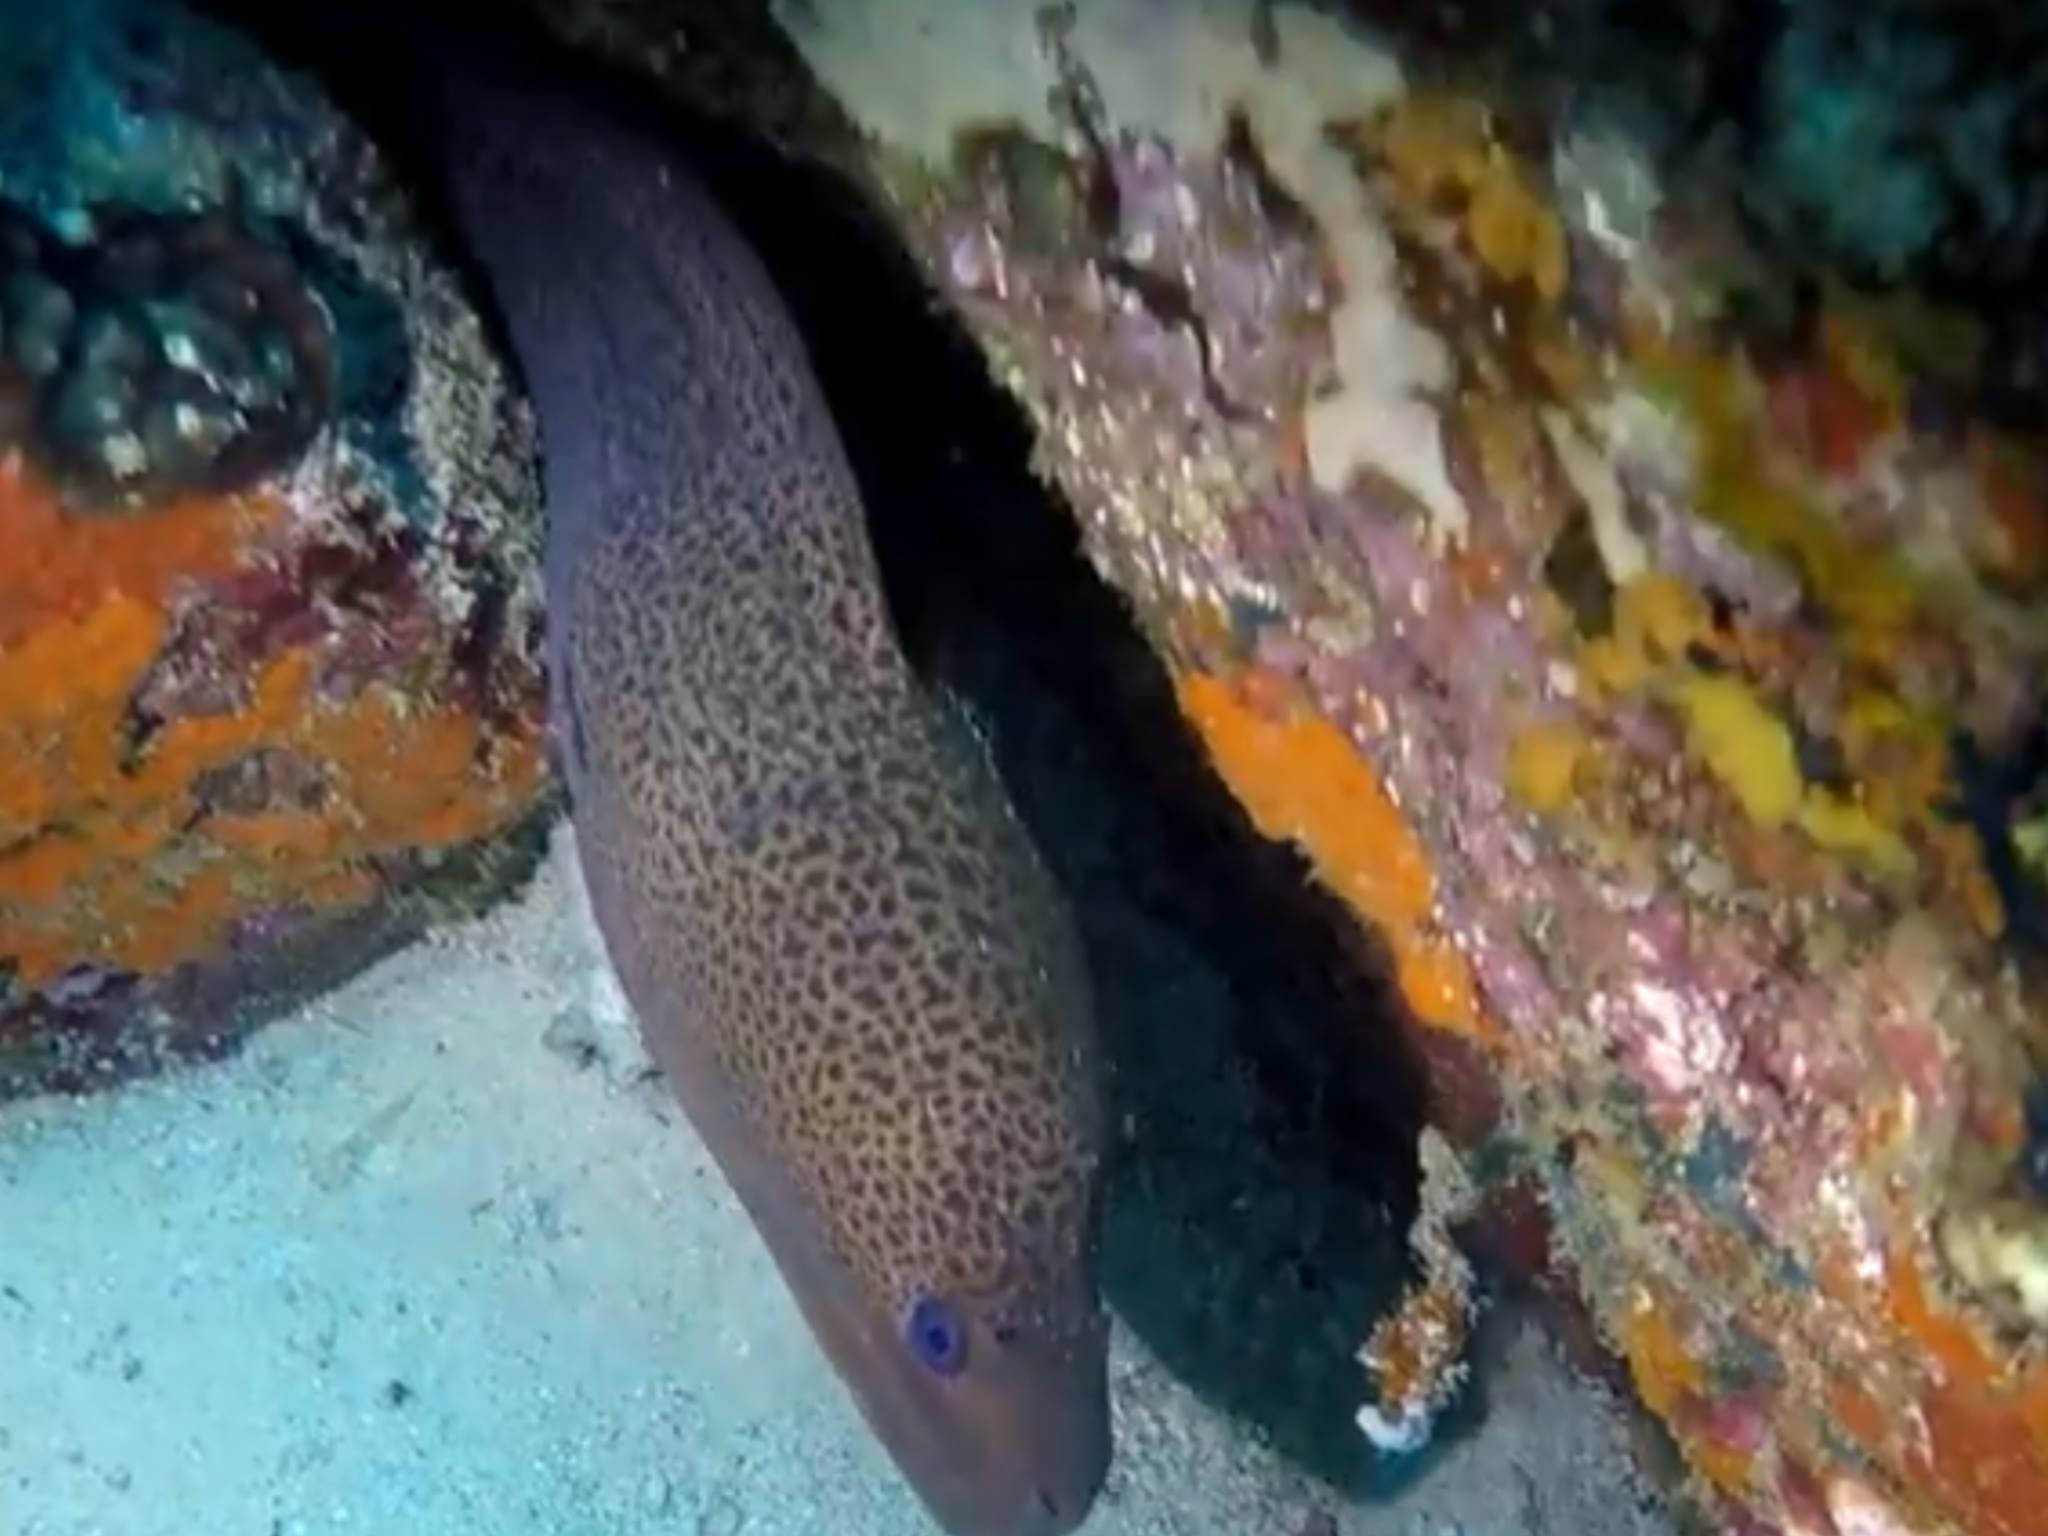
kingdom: Animalia
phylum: Chordata
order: Anguilliformes
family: Muraenidae
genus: Gymnothorax
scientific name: Gymnothorax javanicus
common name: Giant moray
